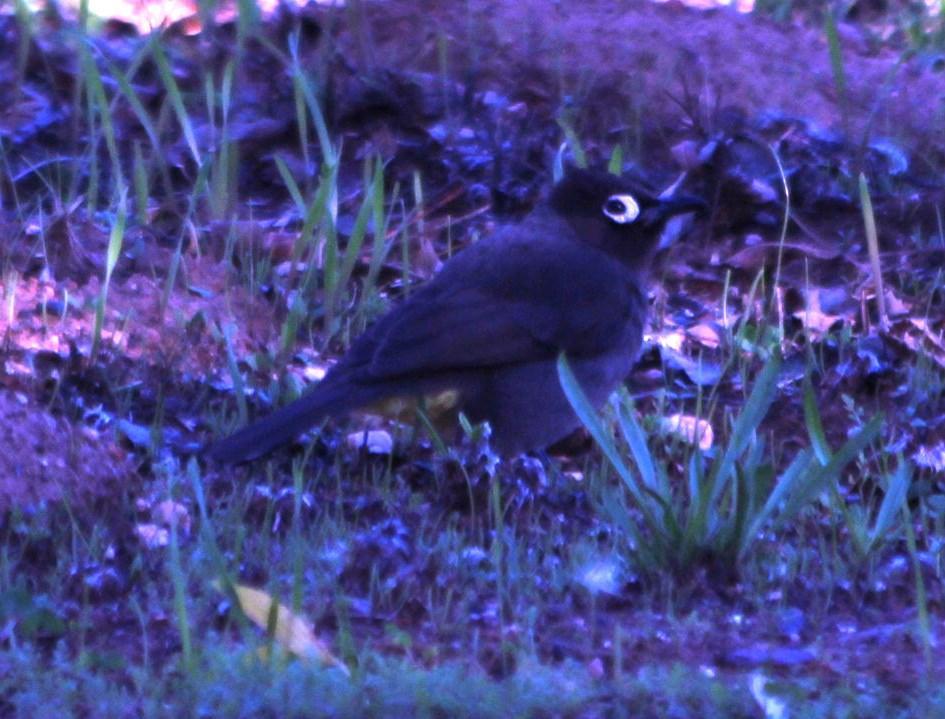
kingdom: Animalia
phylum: Chordata
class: Aves
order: Passeriformes
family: Pycnonotidae
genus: Pycnonotus
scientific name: Pycnonotus capensis
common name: Cape bulbul
